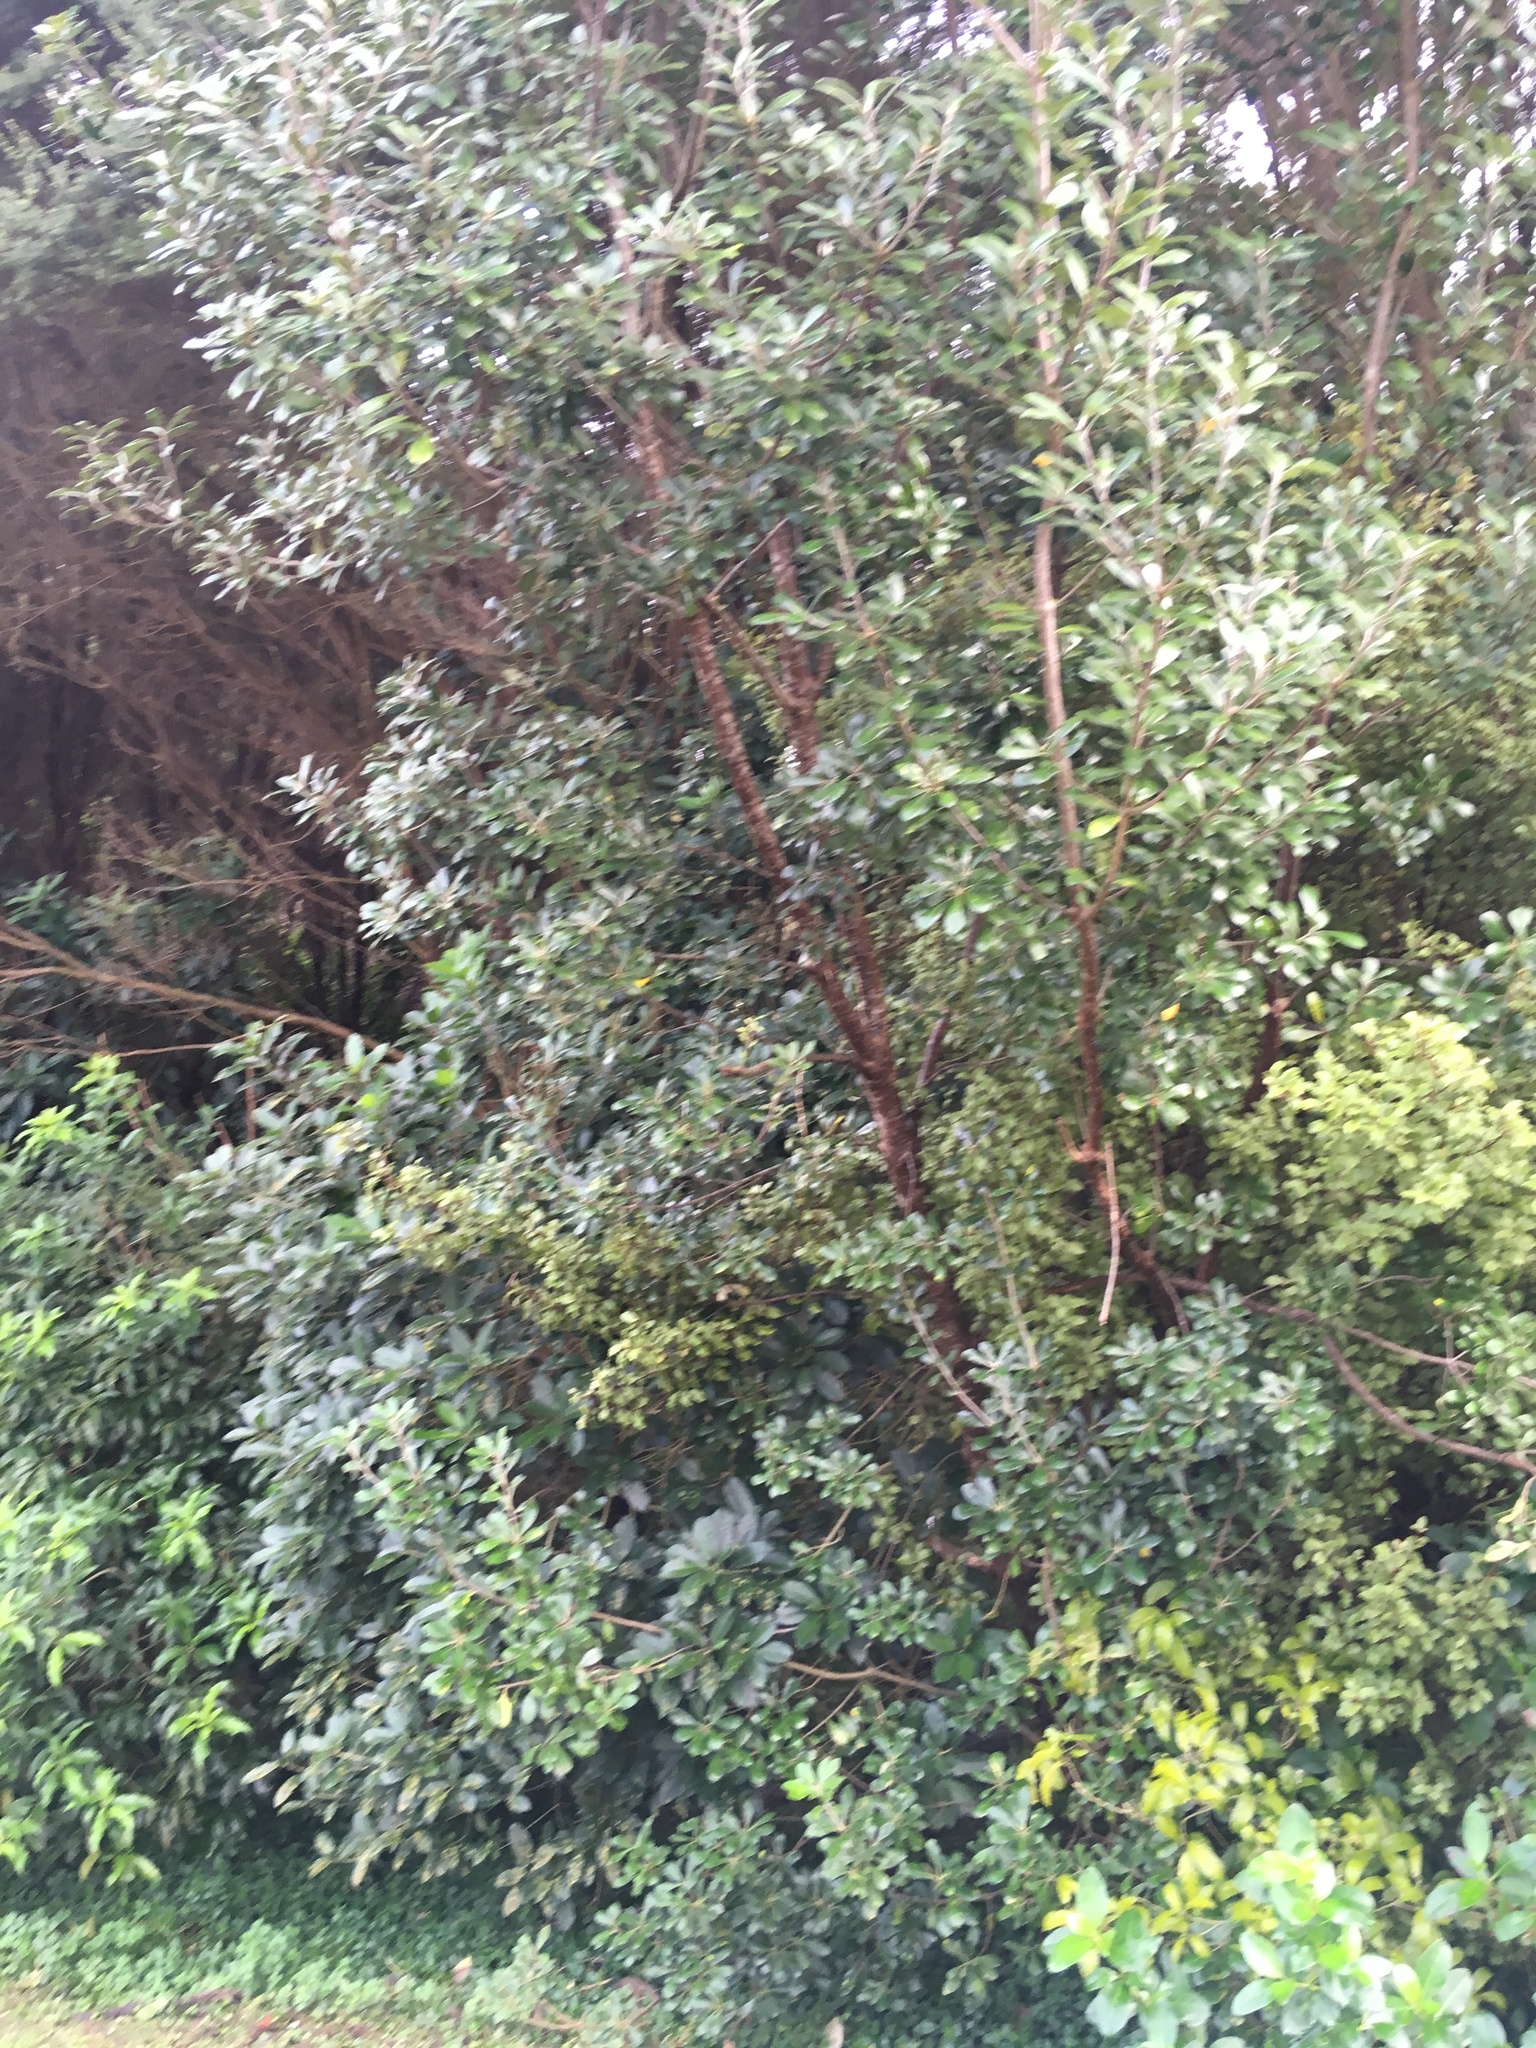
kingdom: Plantae
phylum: Tracheophyta
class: Magnoliopsida
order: Apiales
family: Pittosporaceae
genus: Pittosporum
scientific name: Pittosporum crassifolium
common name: Karo
